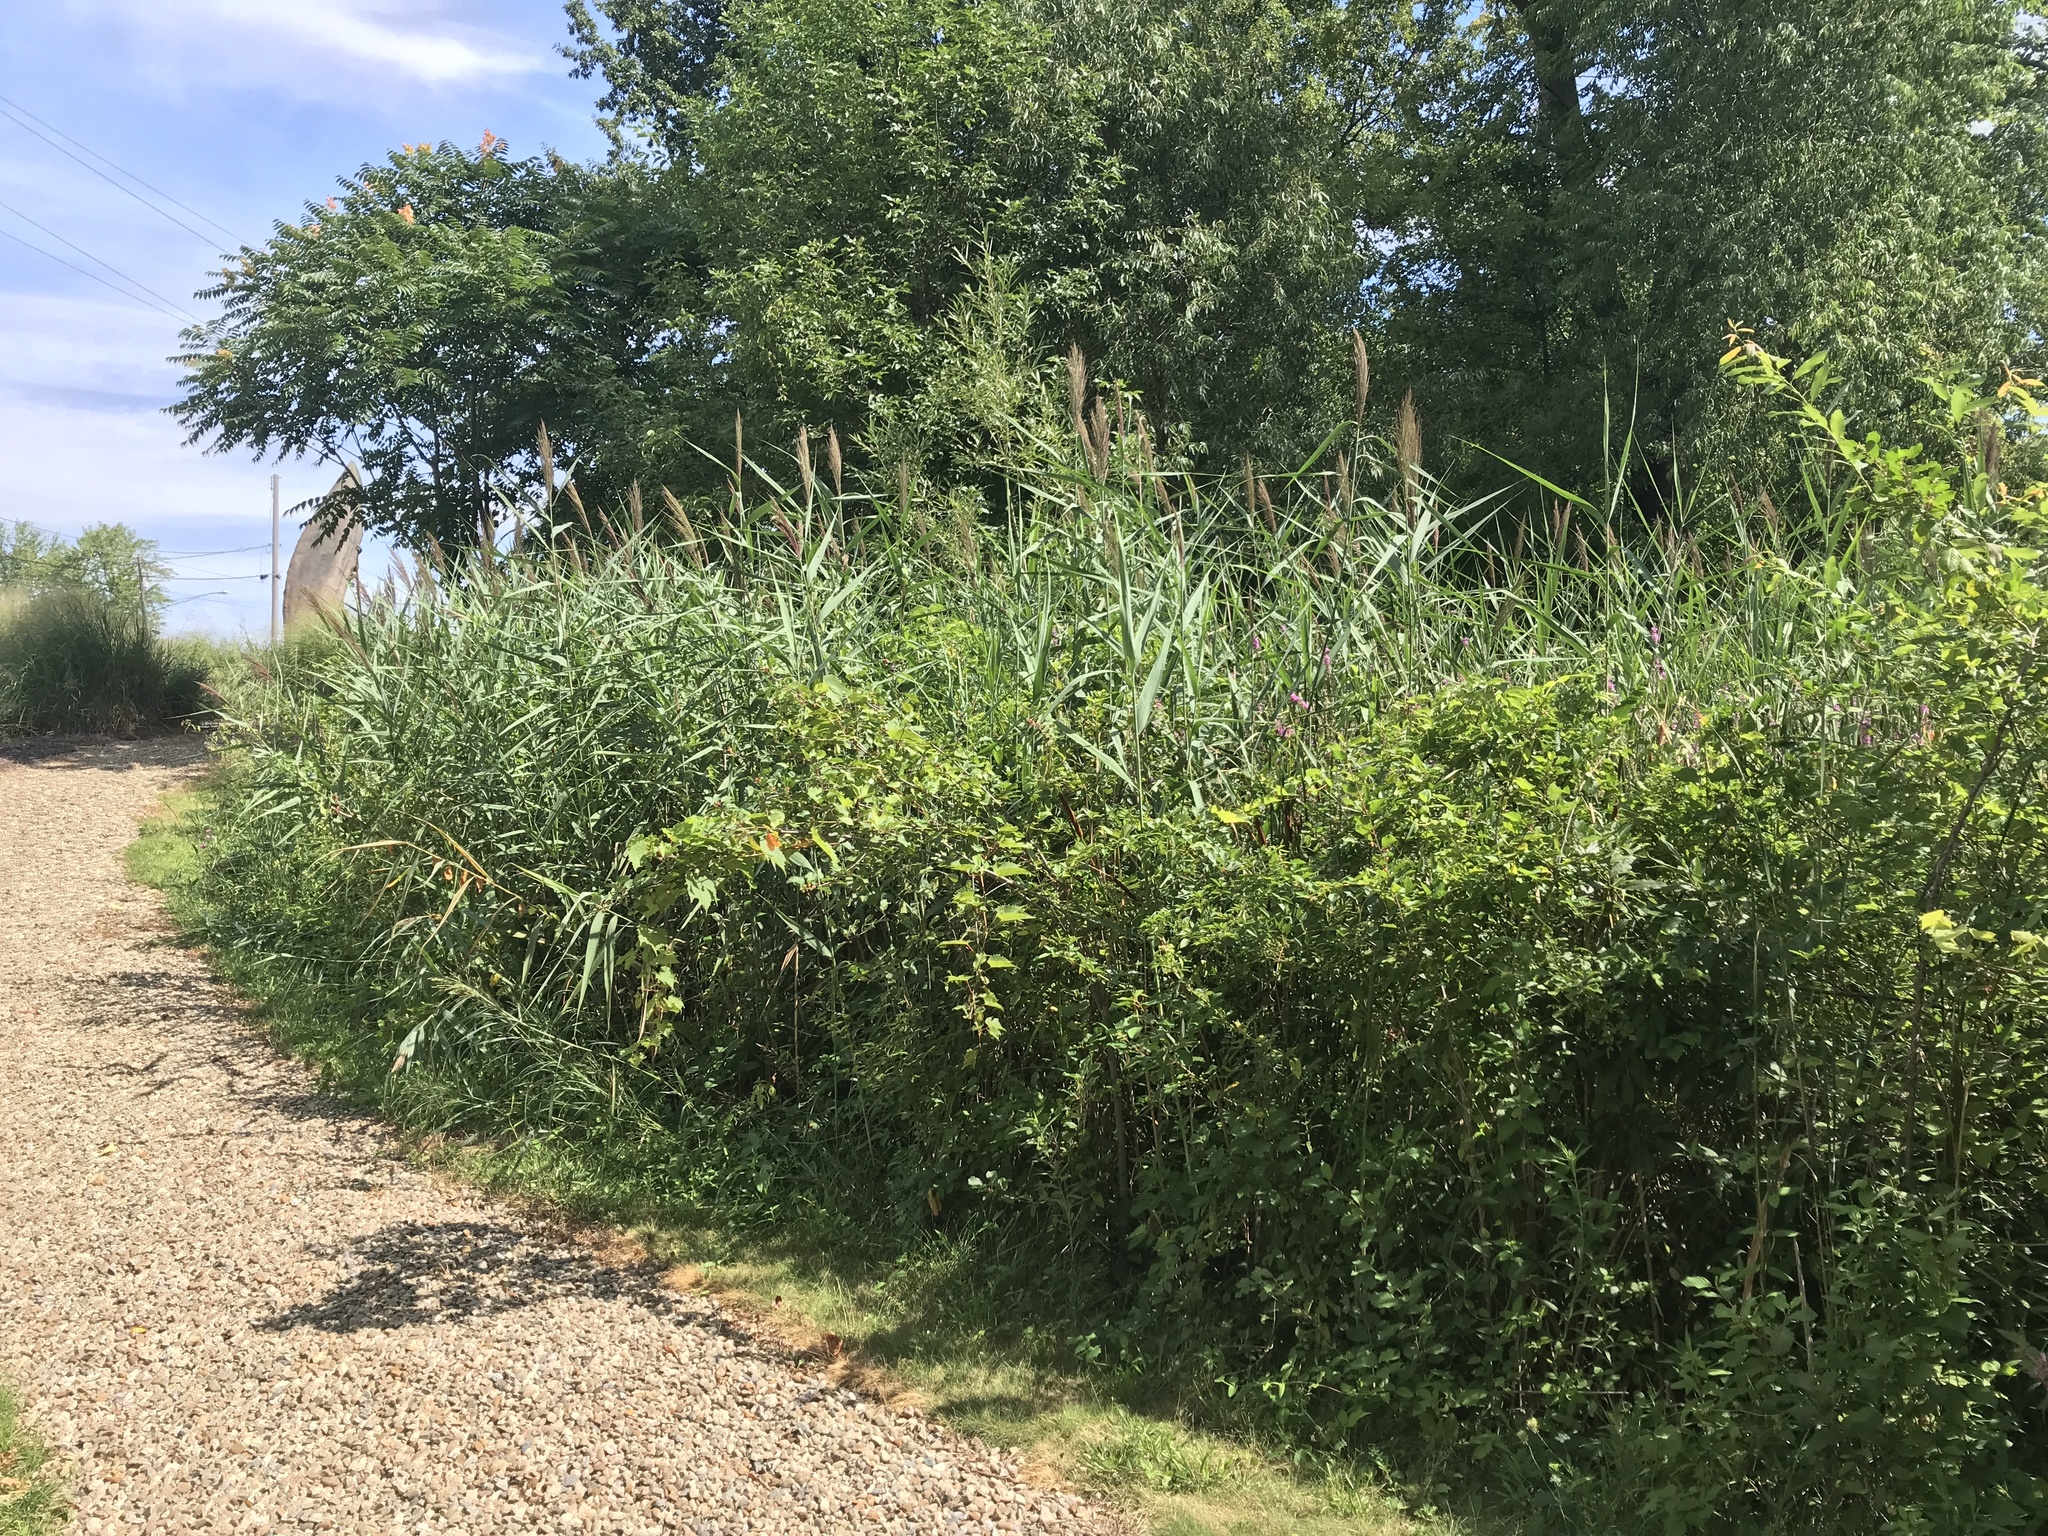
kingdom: Plantae
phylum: Tracheophyta
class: Liliopsida
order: Poales
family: Poaceae
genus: Phragmites
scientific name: Phragmites australis
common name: Common reed
